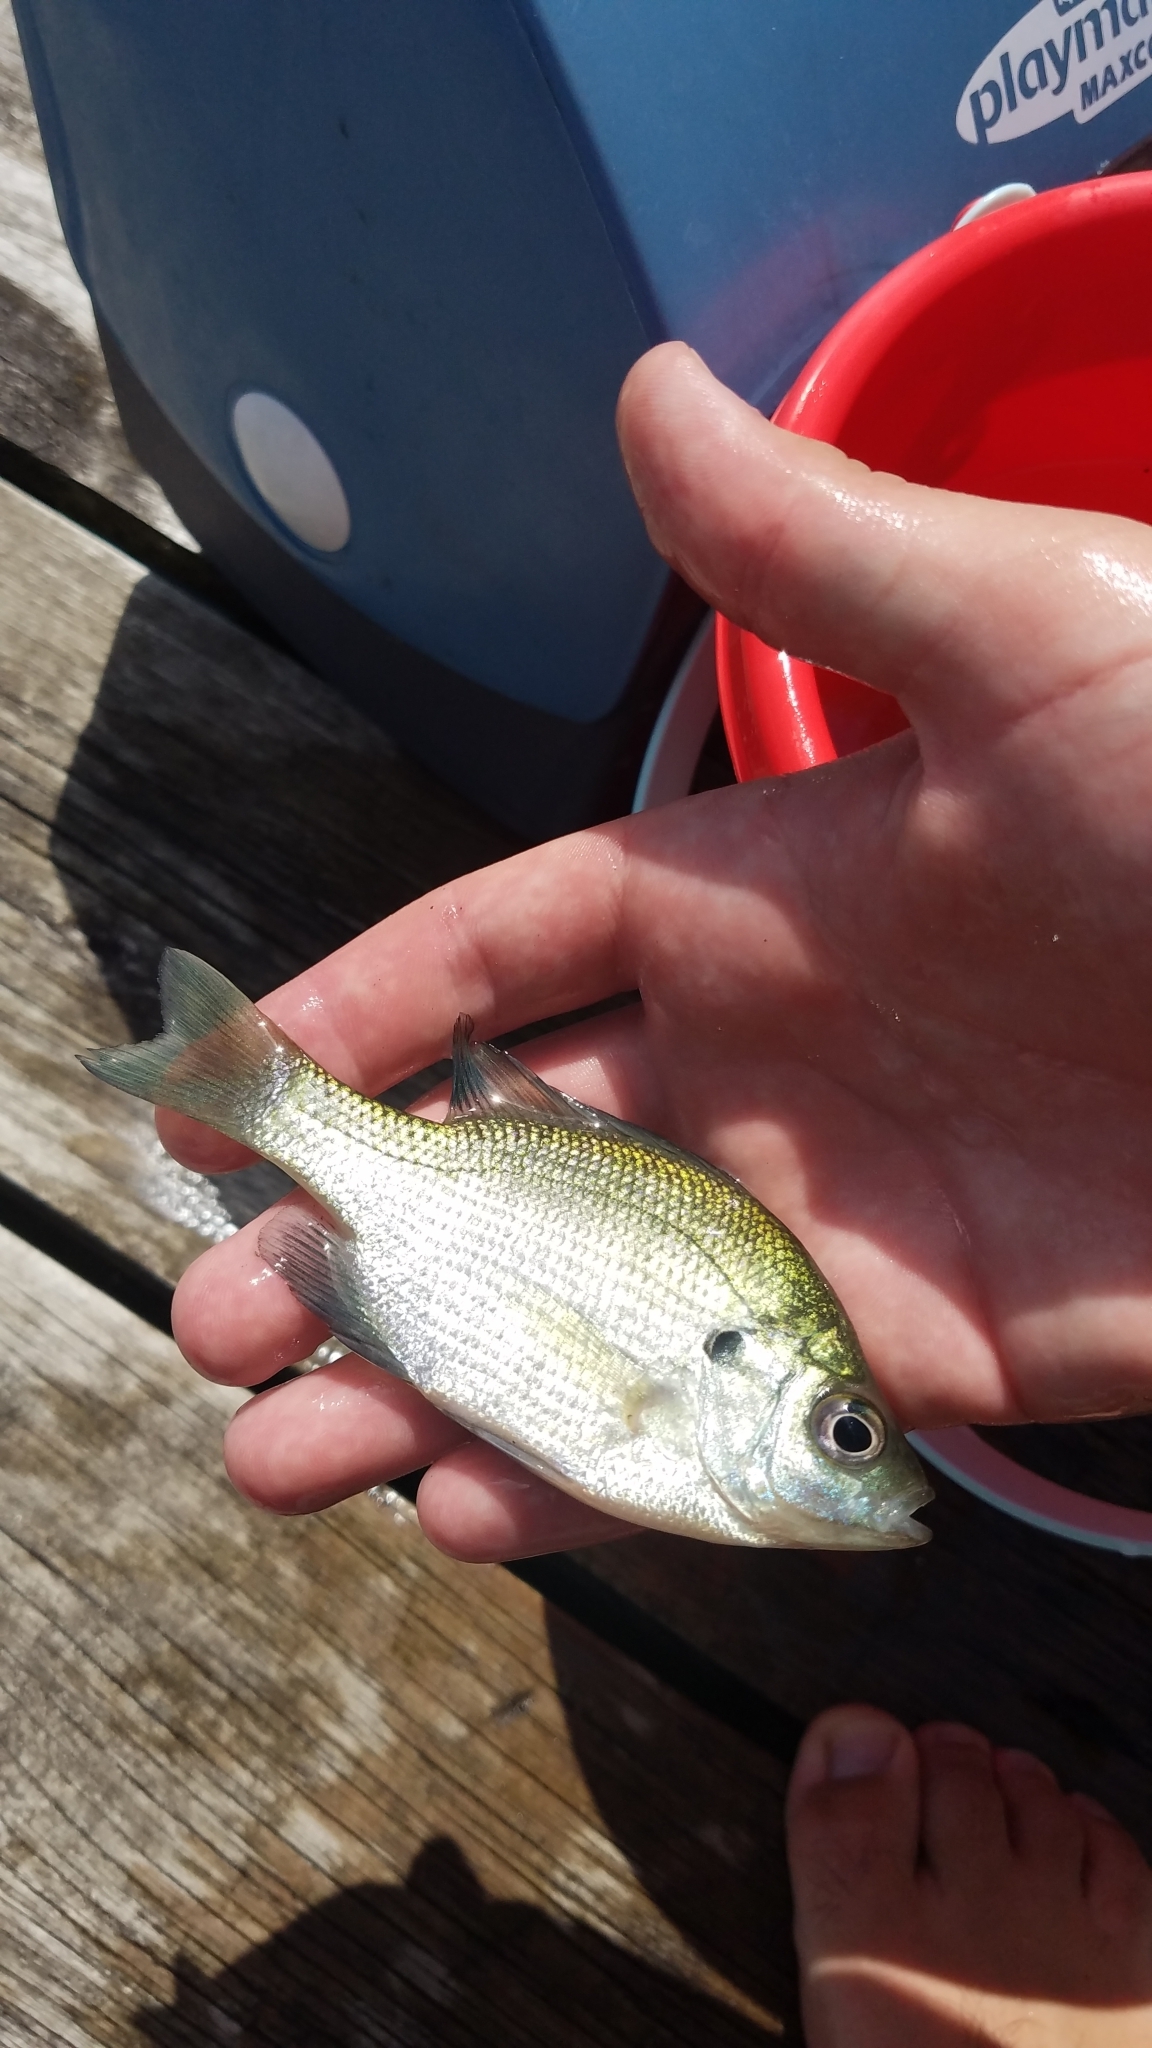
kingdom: Animalia
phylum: Chordata
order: Perciformes
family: Centrarchidae
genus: Lepomis
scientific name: Lepomis macrochirus
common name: Bluegill
